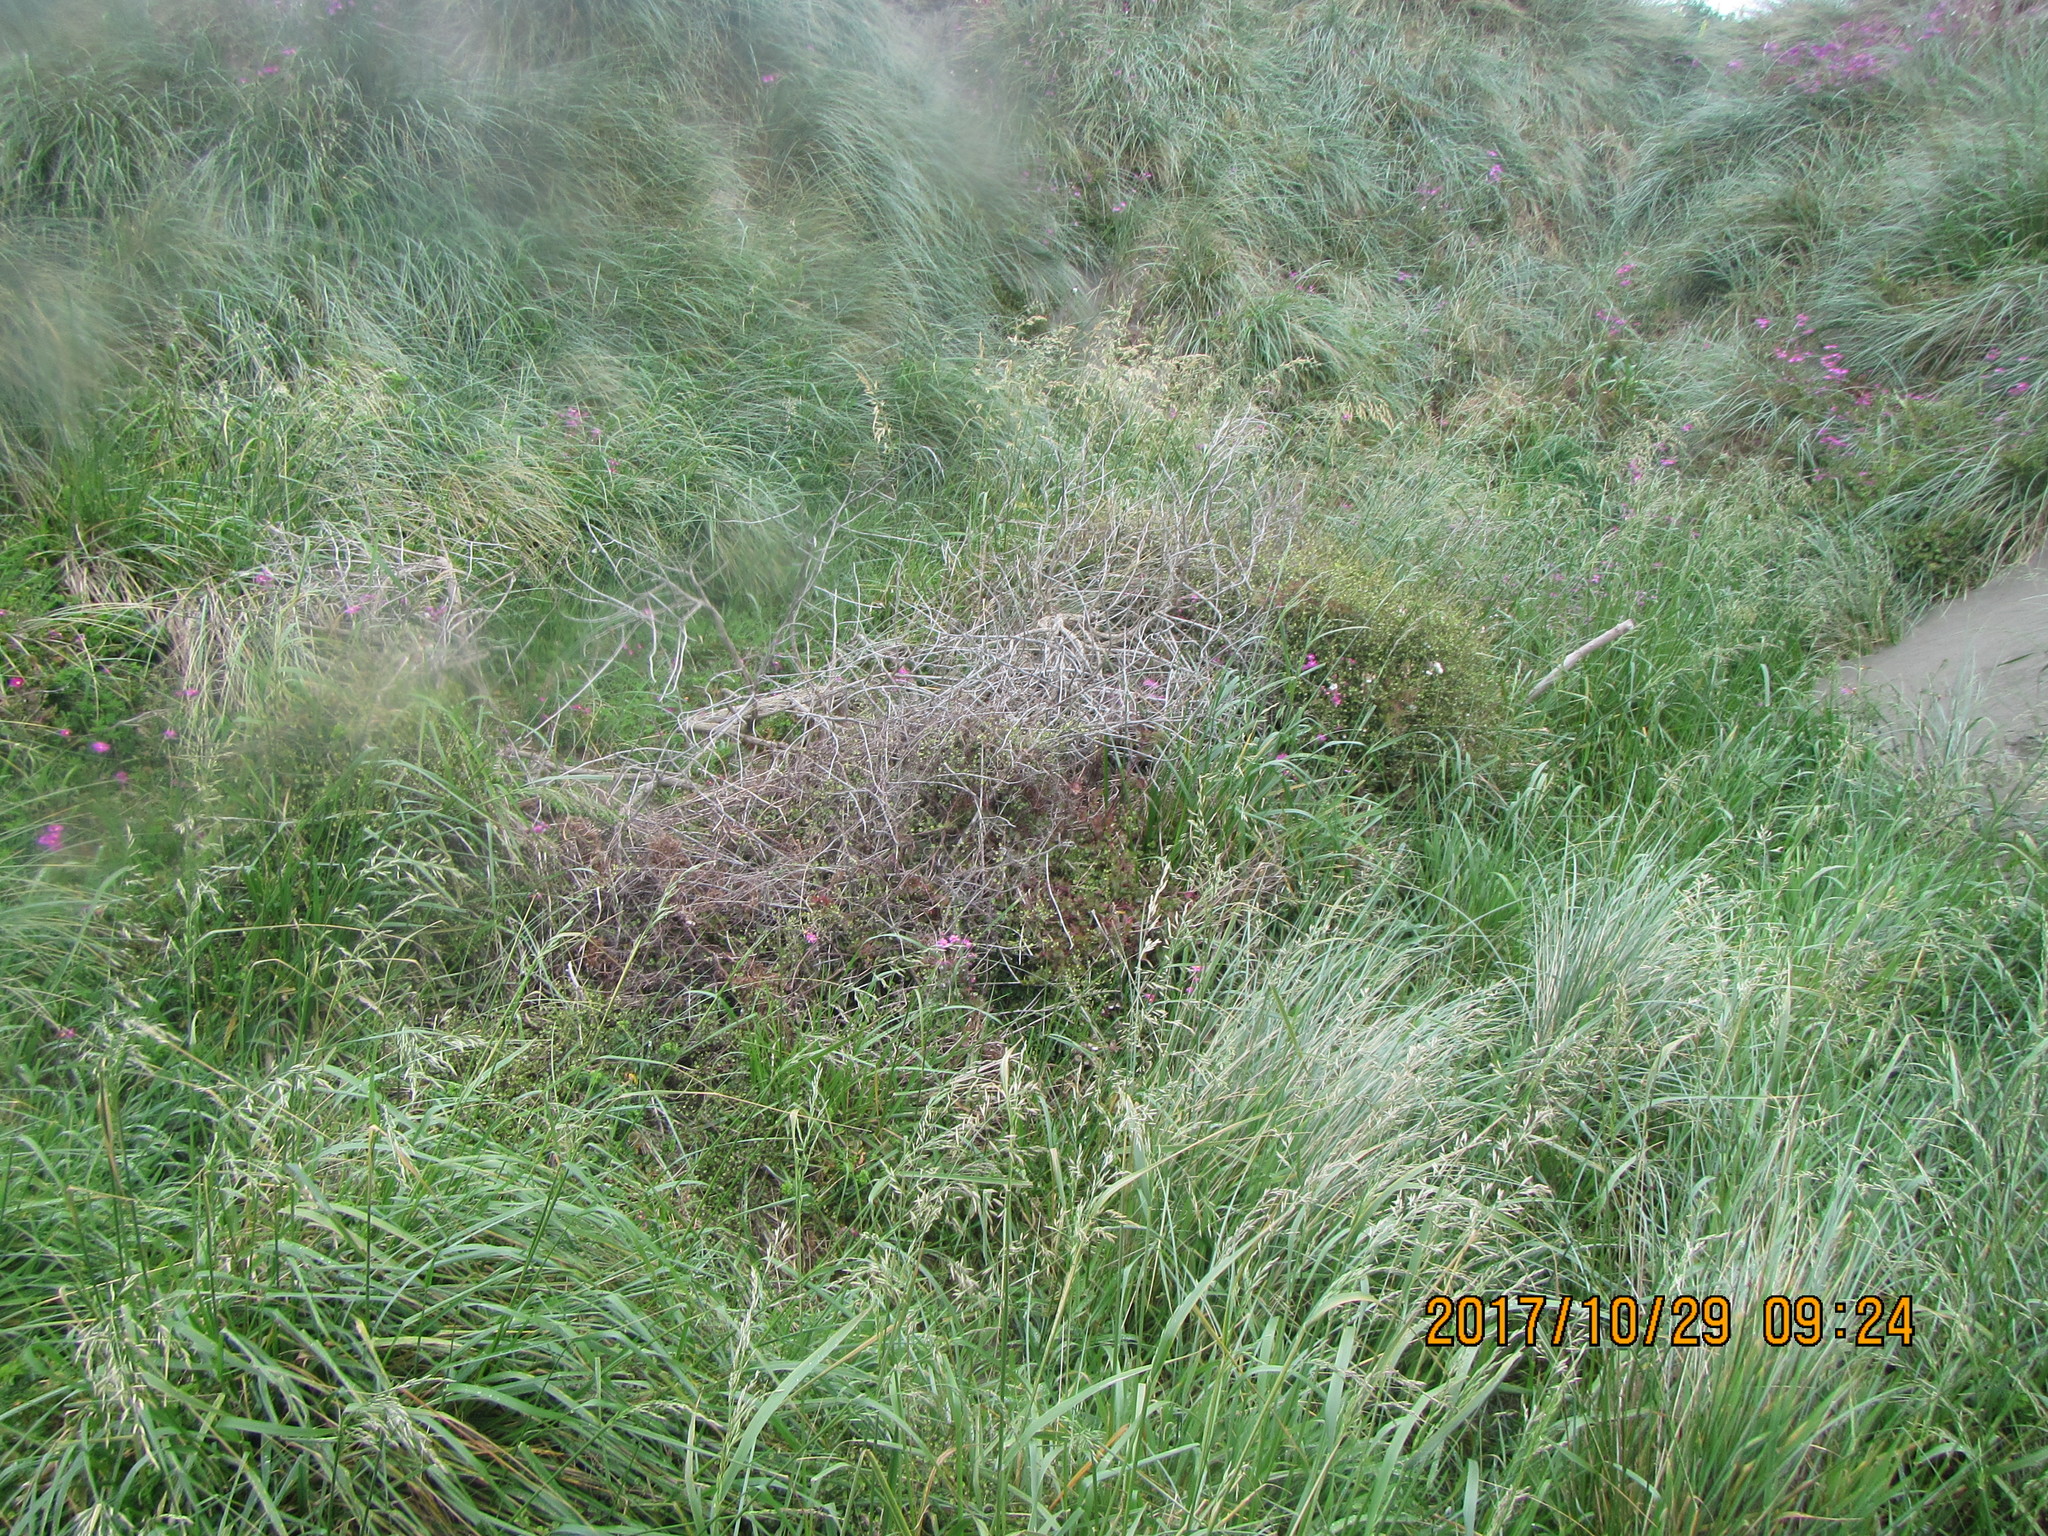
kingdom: Plantae
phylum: Tracheophyta
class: Magnoliopsida
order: Caryophyllales
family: Polygonaceae
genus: Muehlenbeckia
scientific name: Muehlenbeckia complexa
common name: Wireplant
